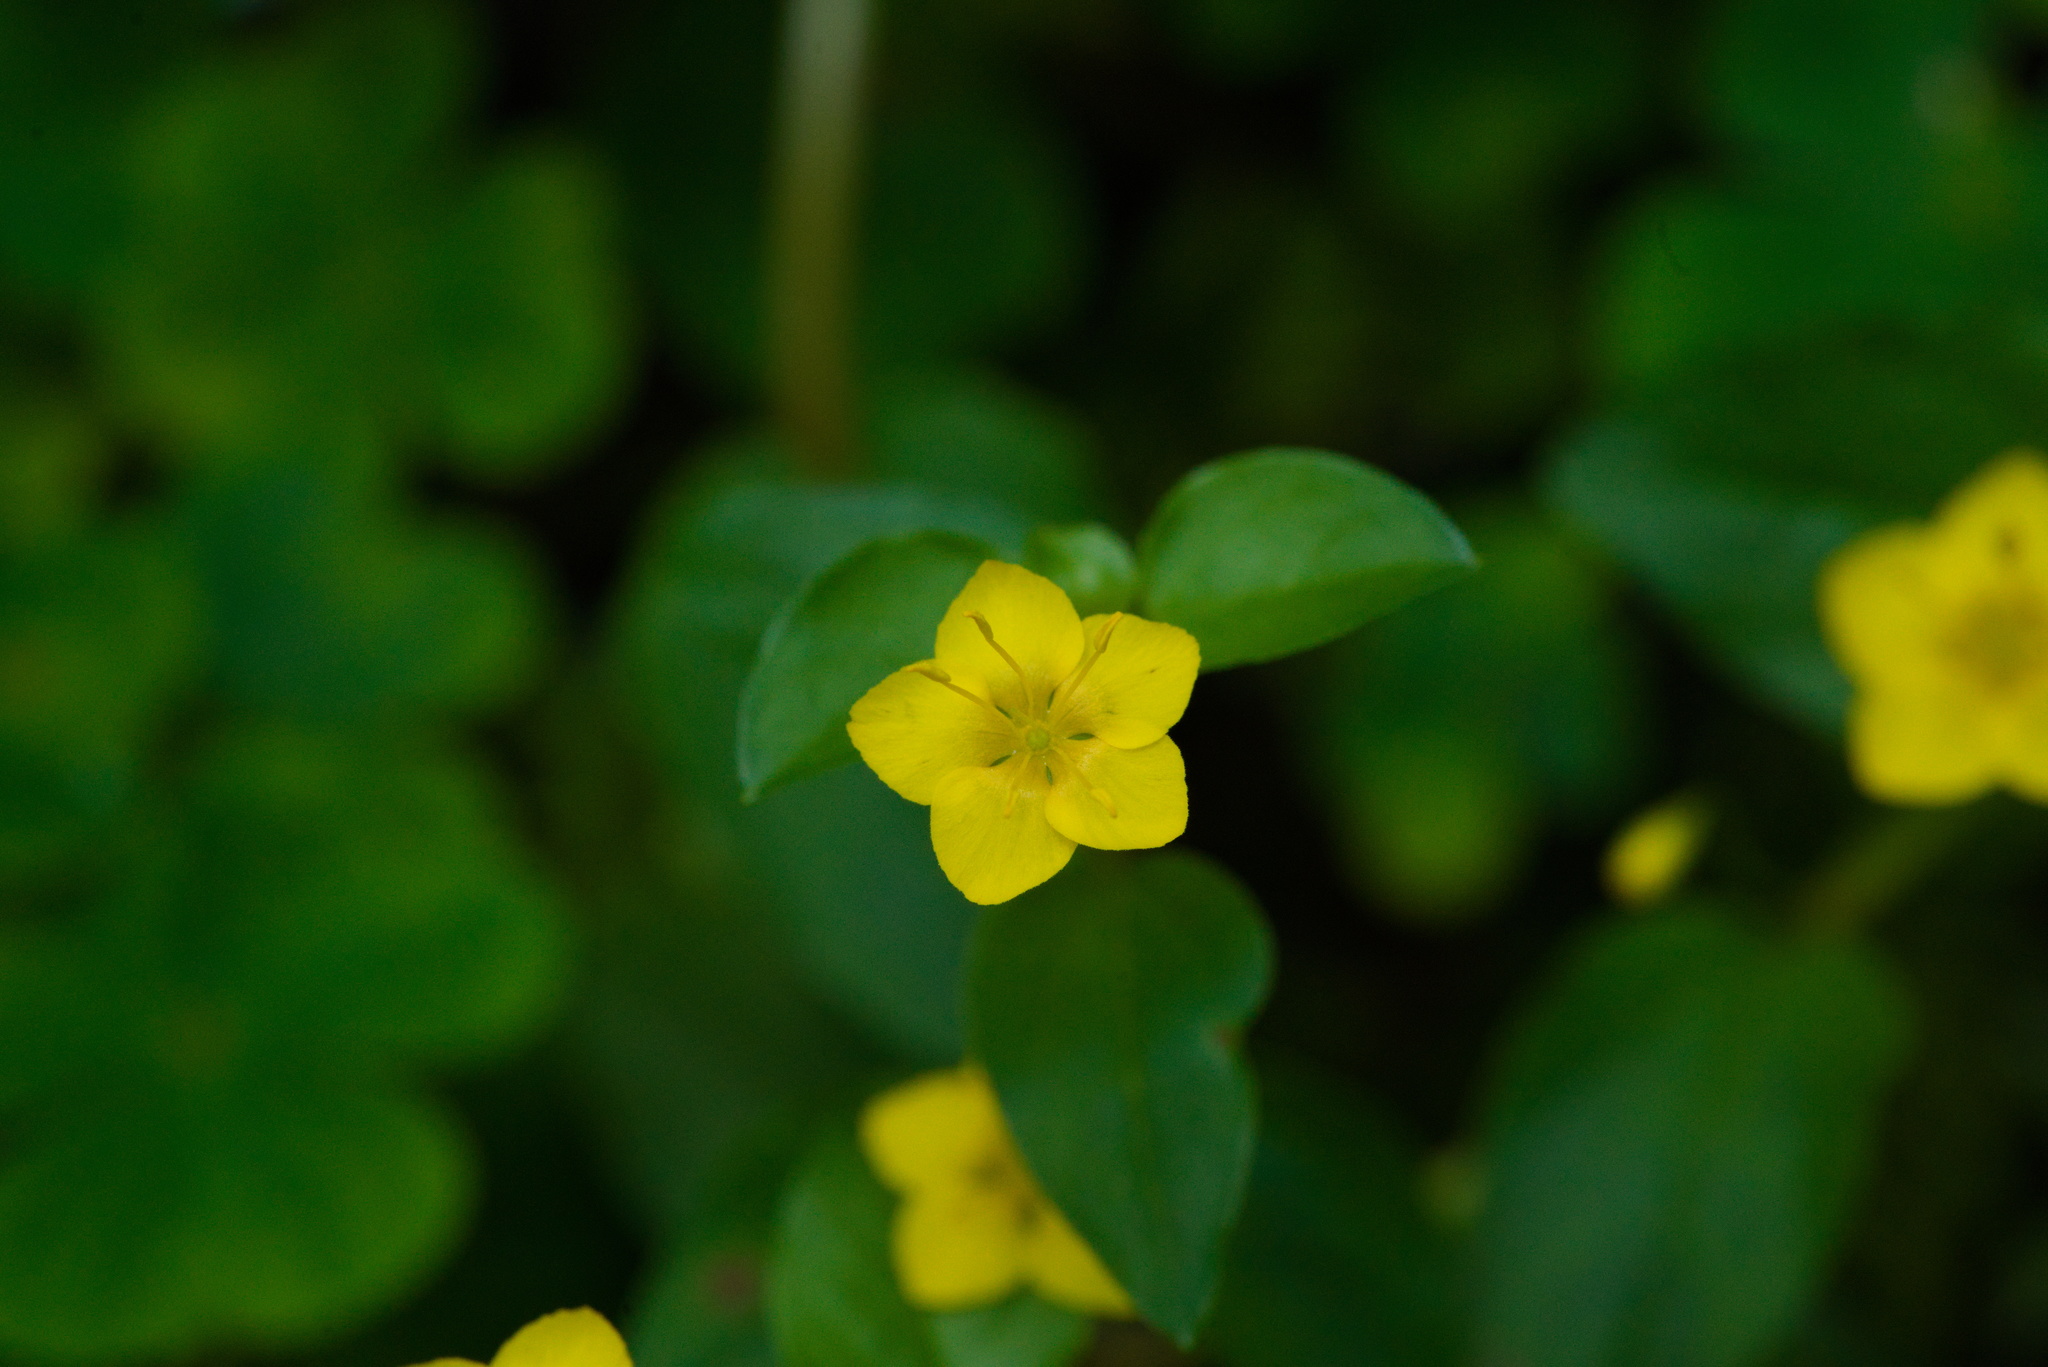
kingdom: Plantae
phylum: Tracheophyta
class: Magnoliopsida
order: Ericales
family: Primulaceae
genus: Lysimachia
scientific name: Lysimachia nemorum
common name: Yellow pimpernel
